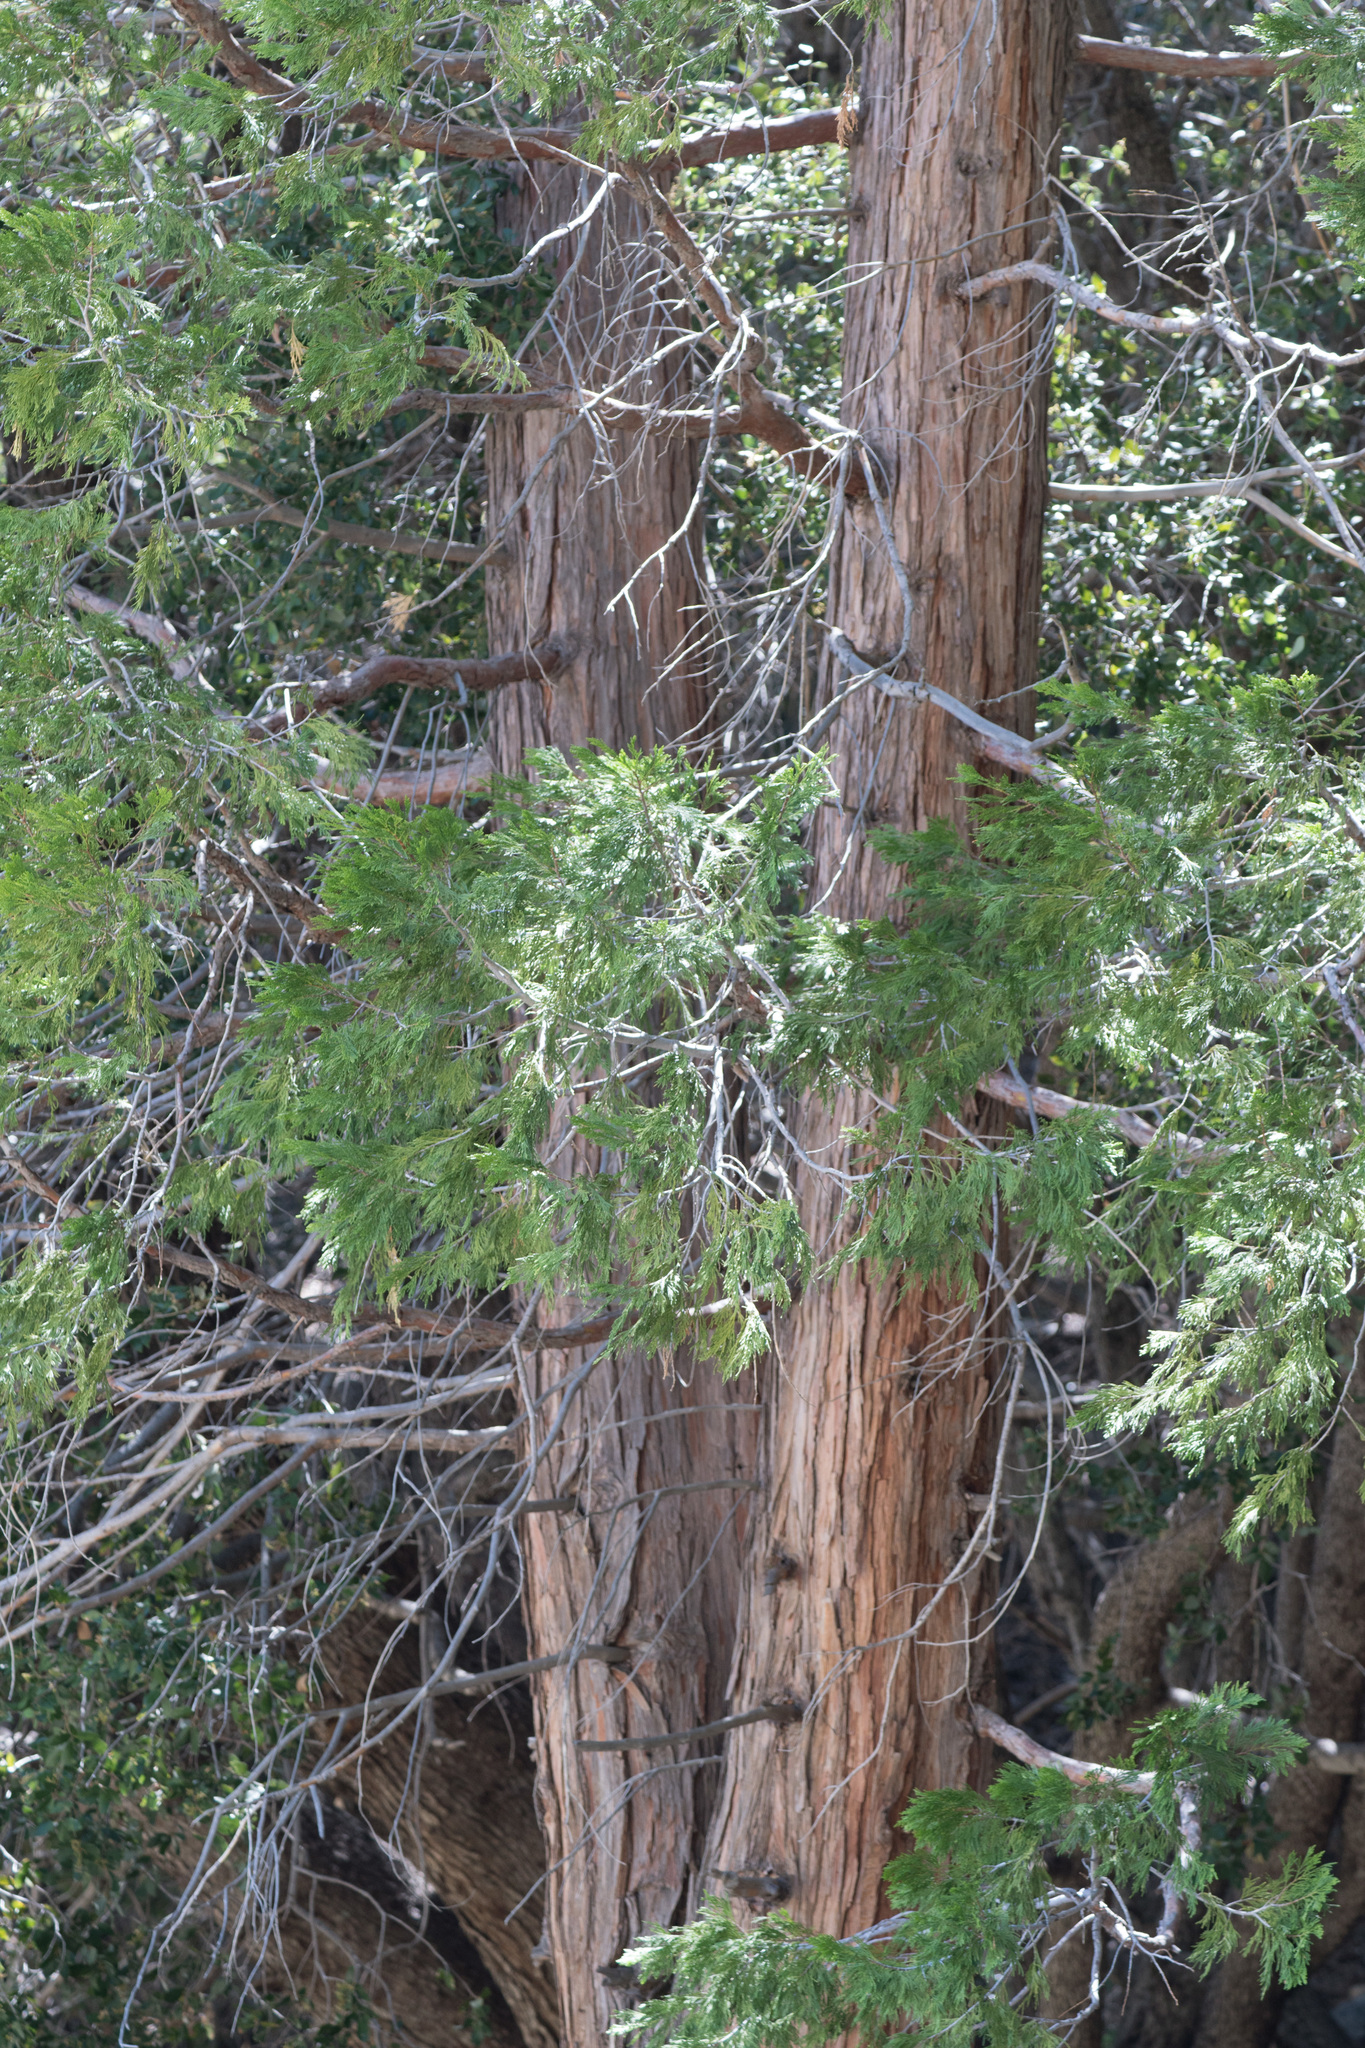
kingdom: Plantae
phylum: Tracheophyta
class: Pinopsida
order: Pinales
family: Cupressaceae
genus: Calocedrus
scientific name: Calocedrus decurrens
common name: Californian incense-cedar
